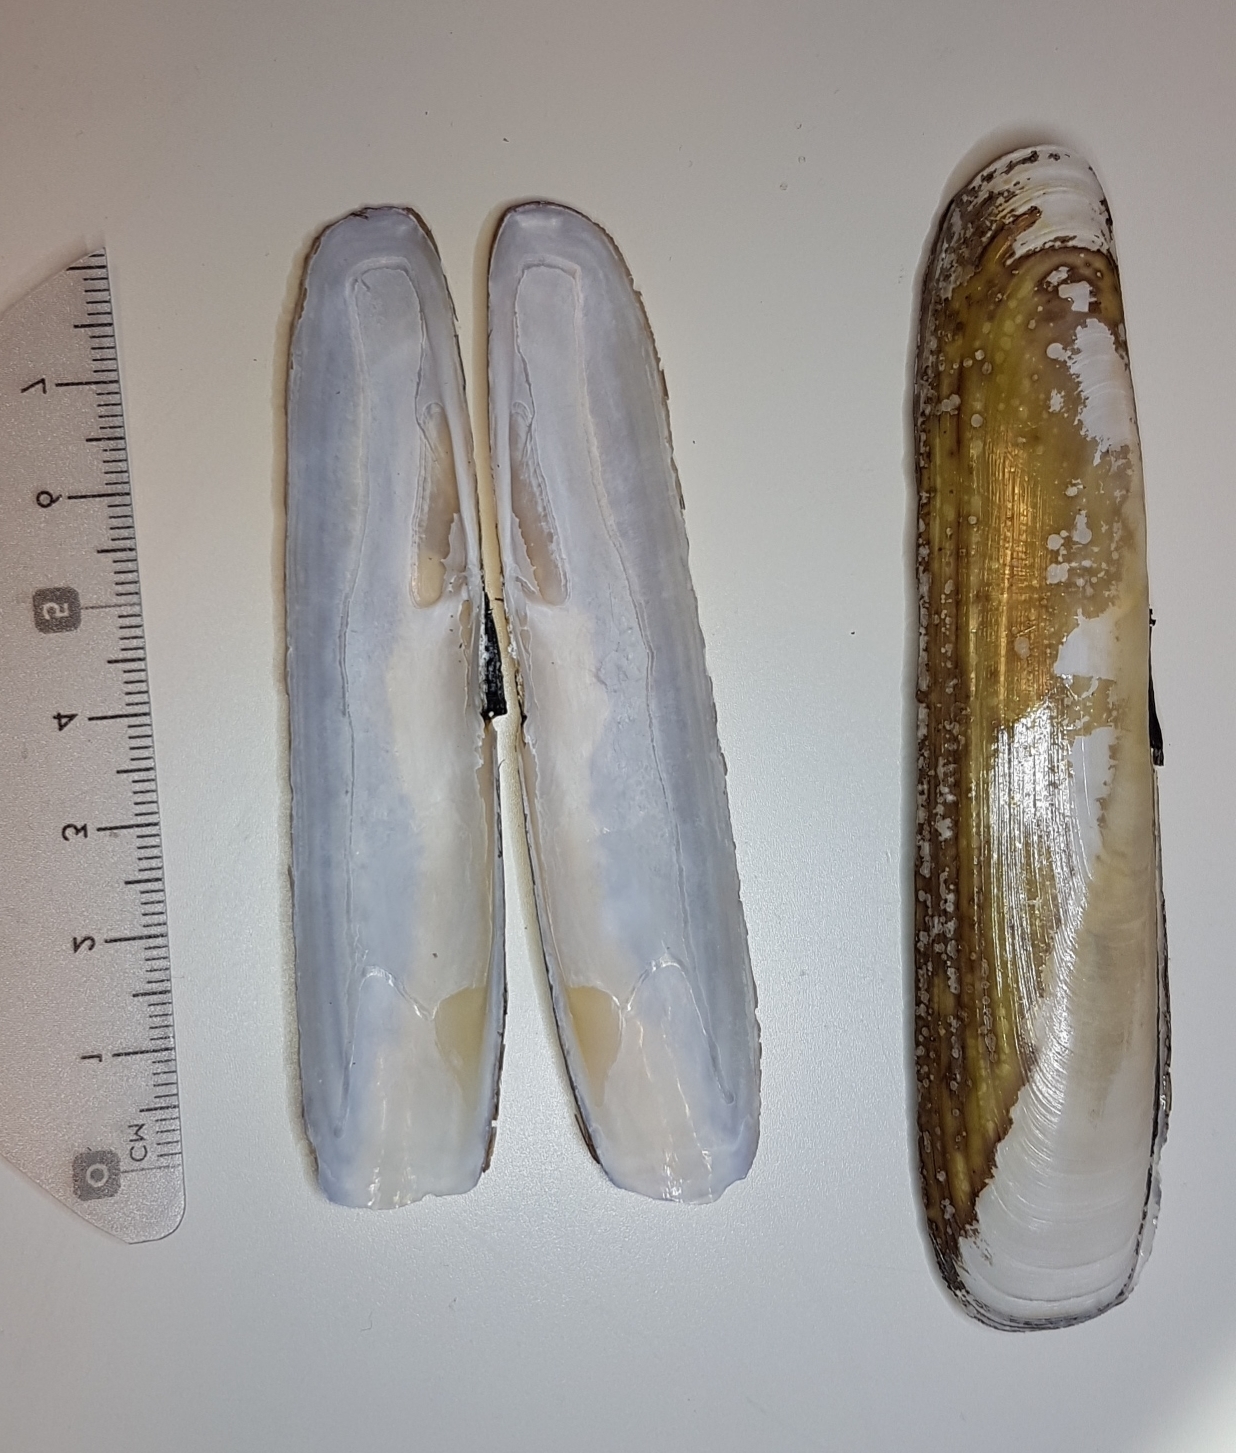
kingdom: Animalia
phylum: Mollusca
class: Bivalvia
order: Adapedonta
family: Pharidae
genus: Pharus
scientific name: Pharus legumen
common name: Bean razor clam
